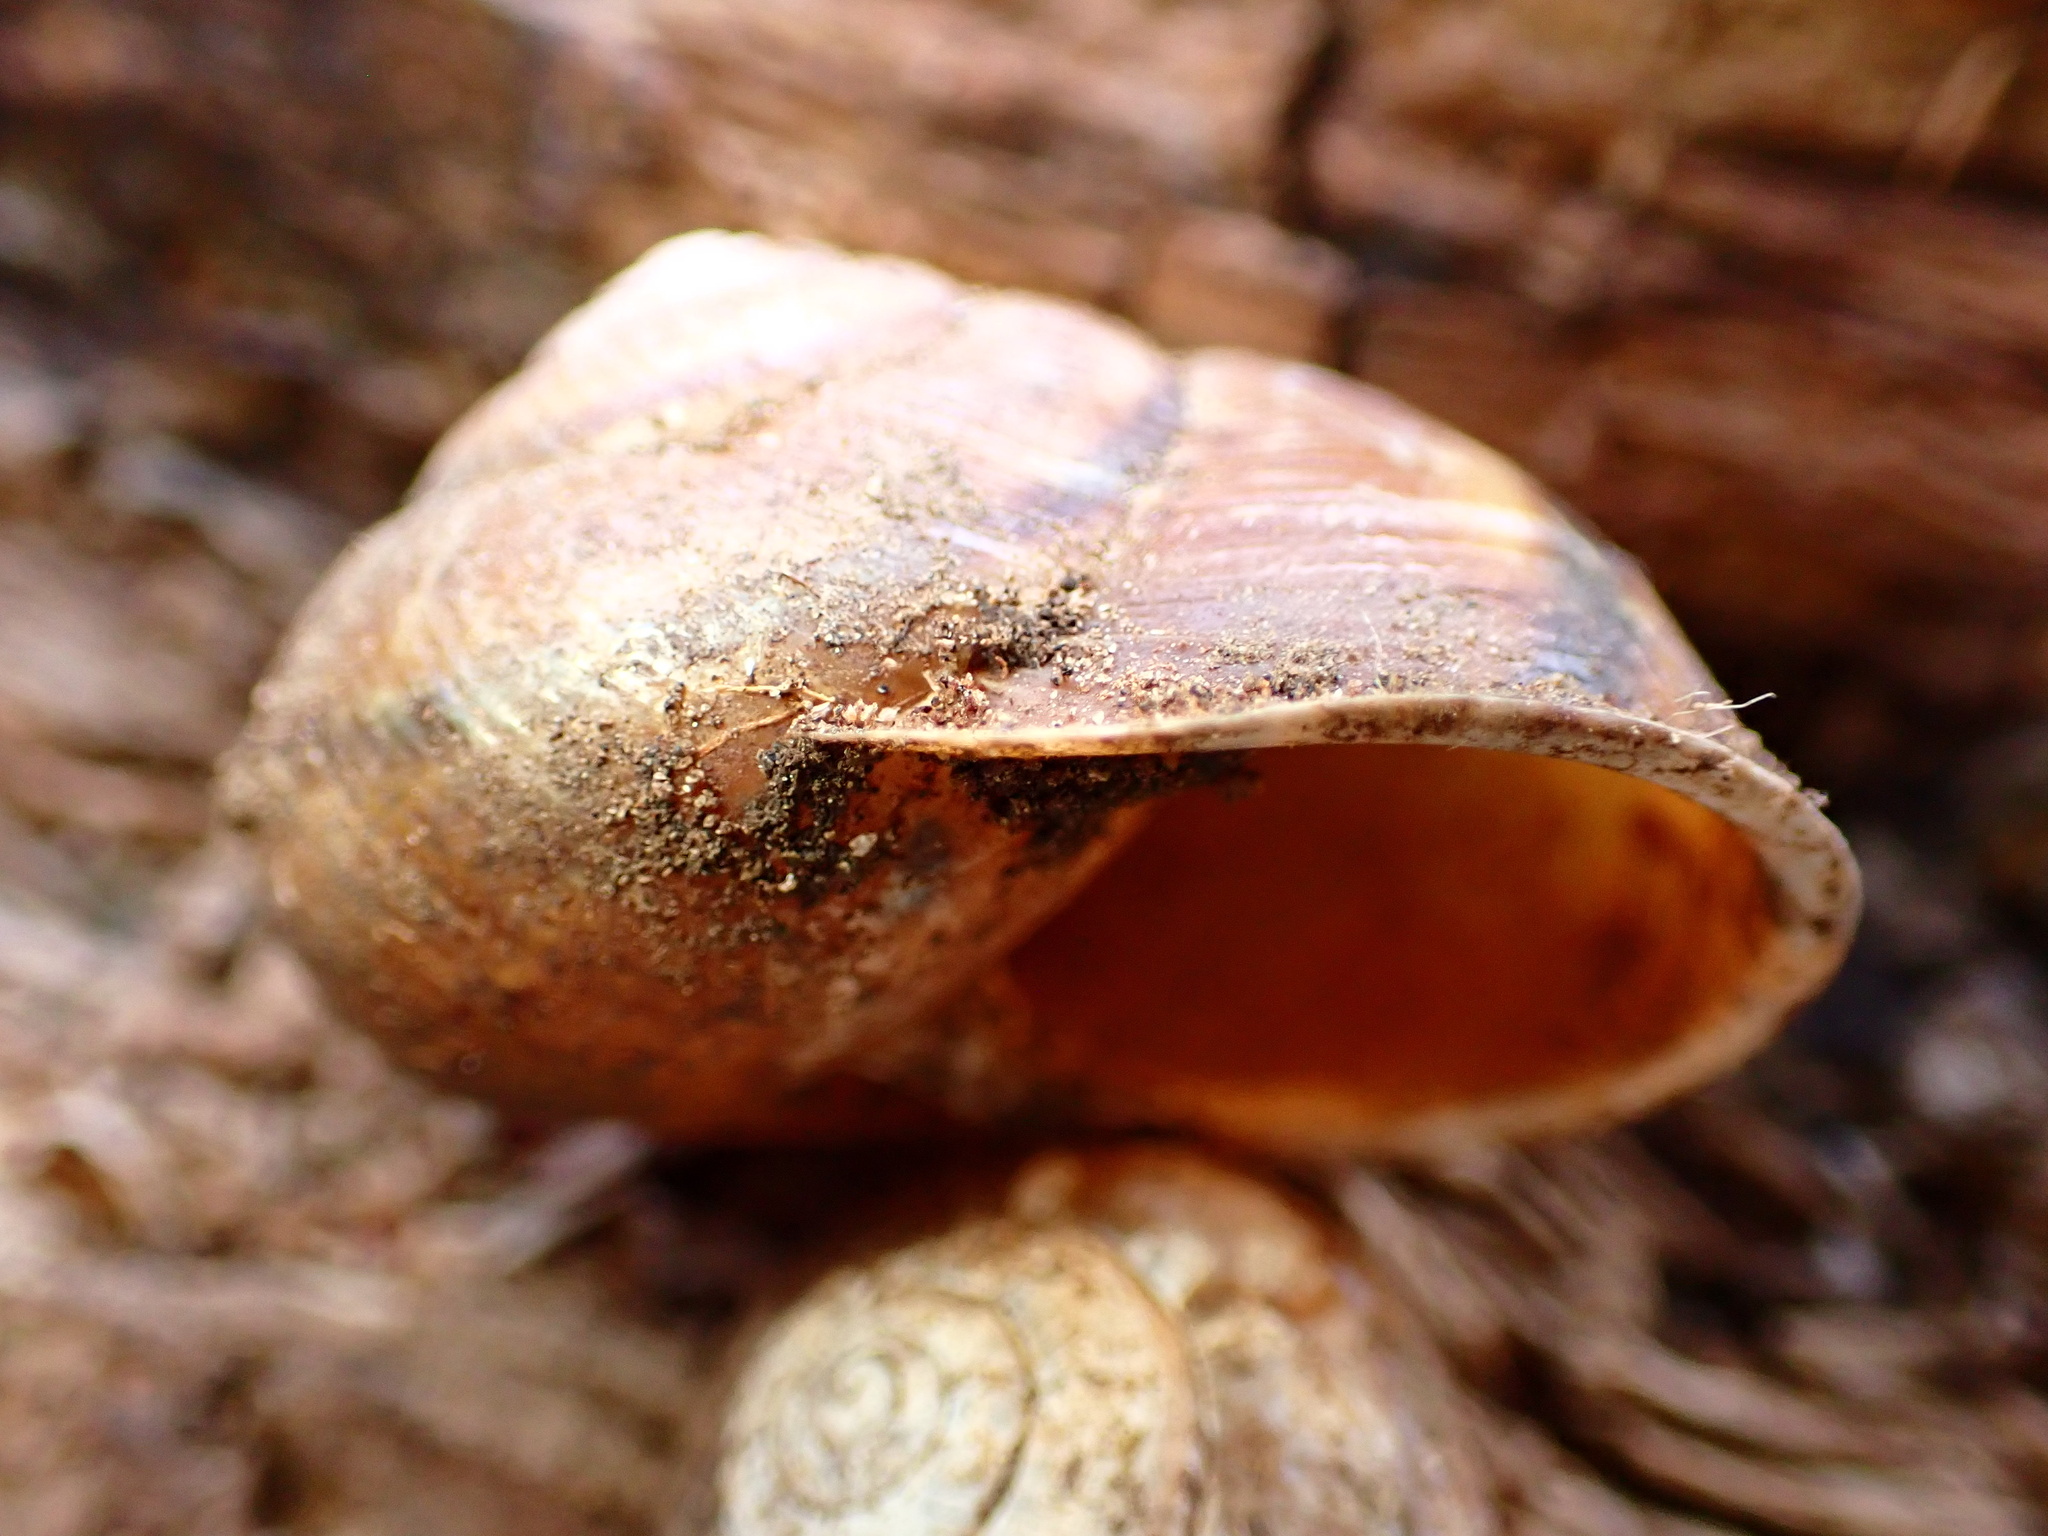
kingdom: Animalia
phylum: Mollusca
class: Gastropoda
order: Stylommatophora
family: Xanthonychidae
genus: Helminthoglypta
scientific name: Helminthoglypta tudiculata
